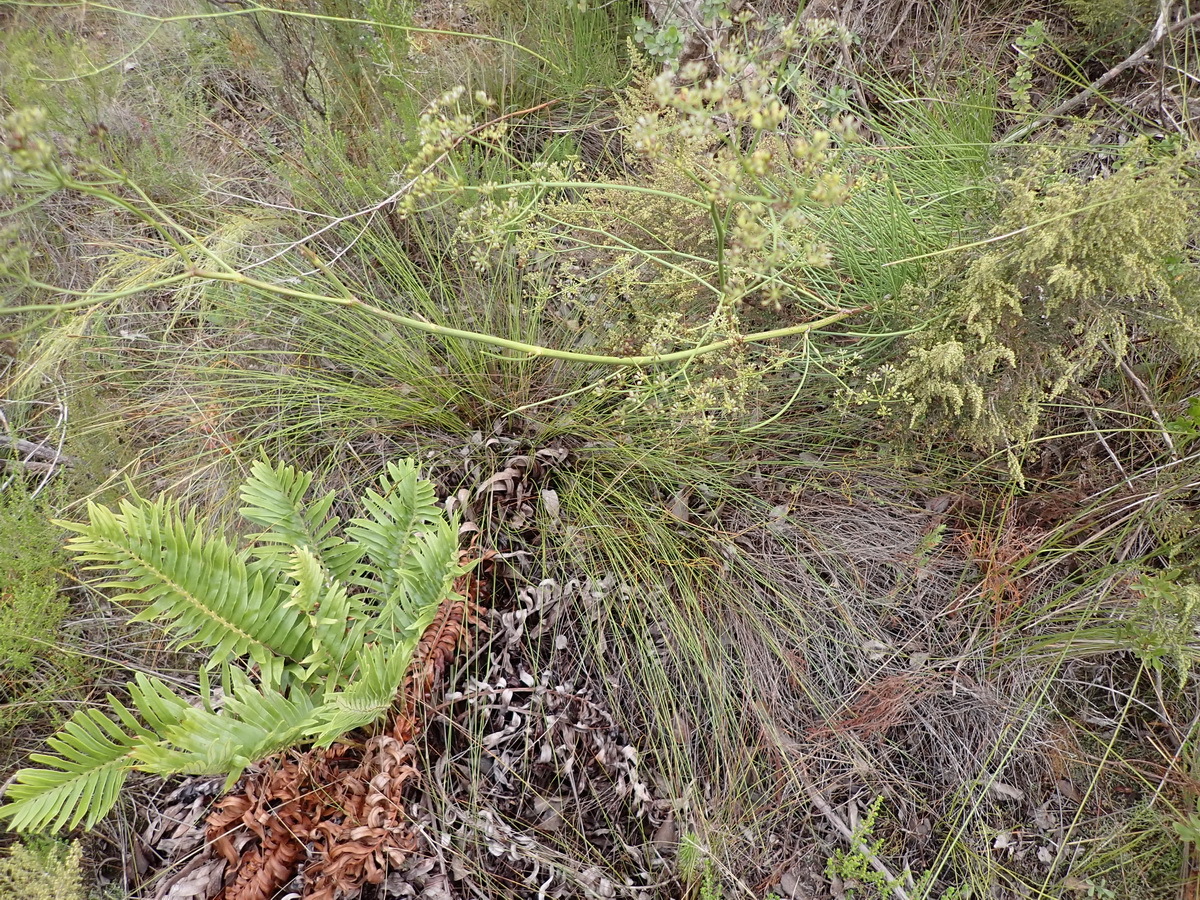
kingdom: Plantae
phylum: Tracheophyta
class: Magnoliopsida
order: Apiales
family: Apiaceae
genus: Anginon
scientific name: Anginon difforme
